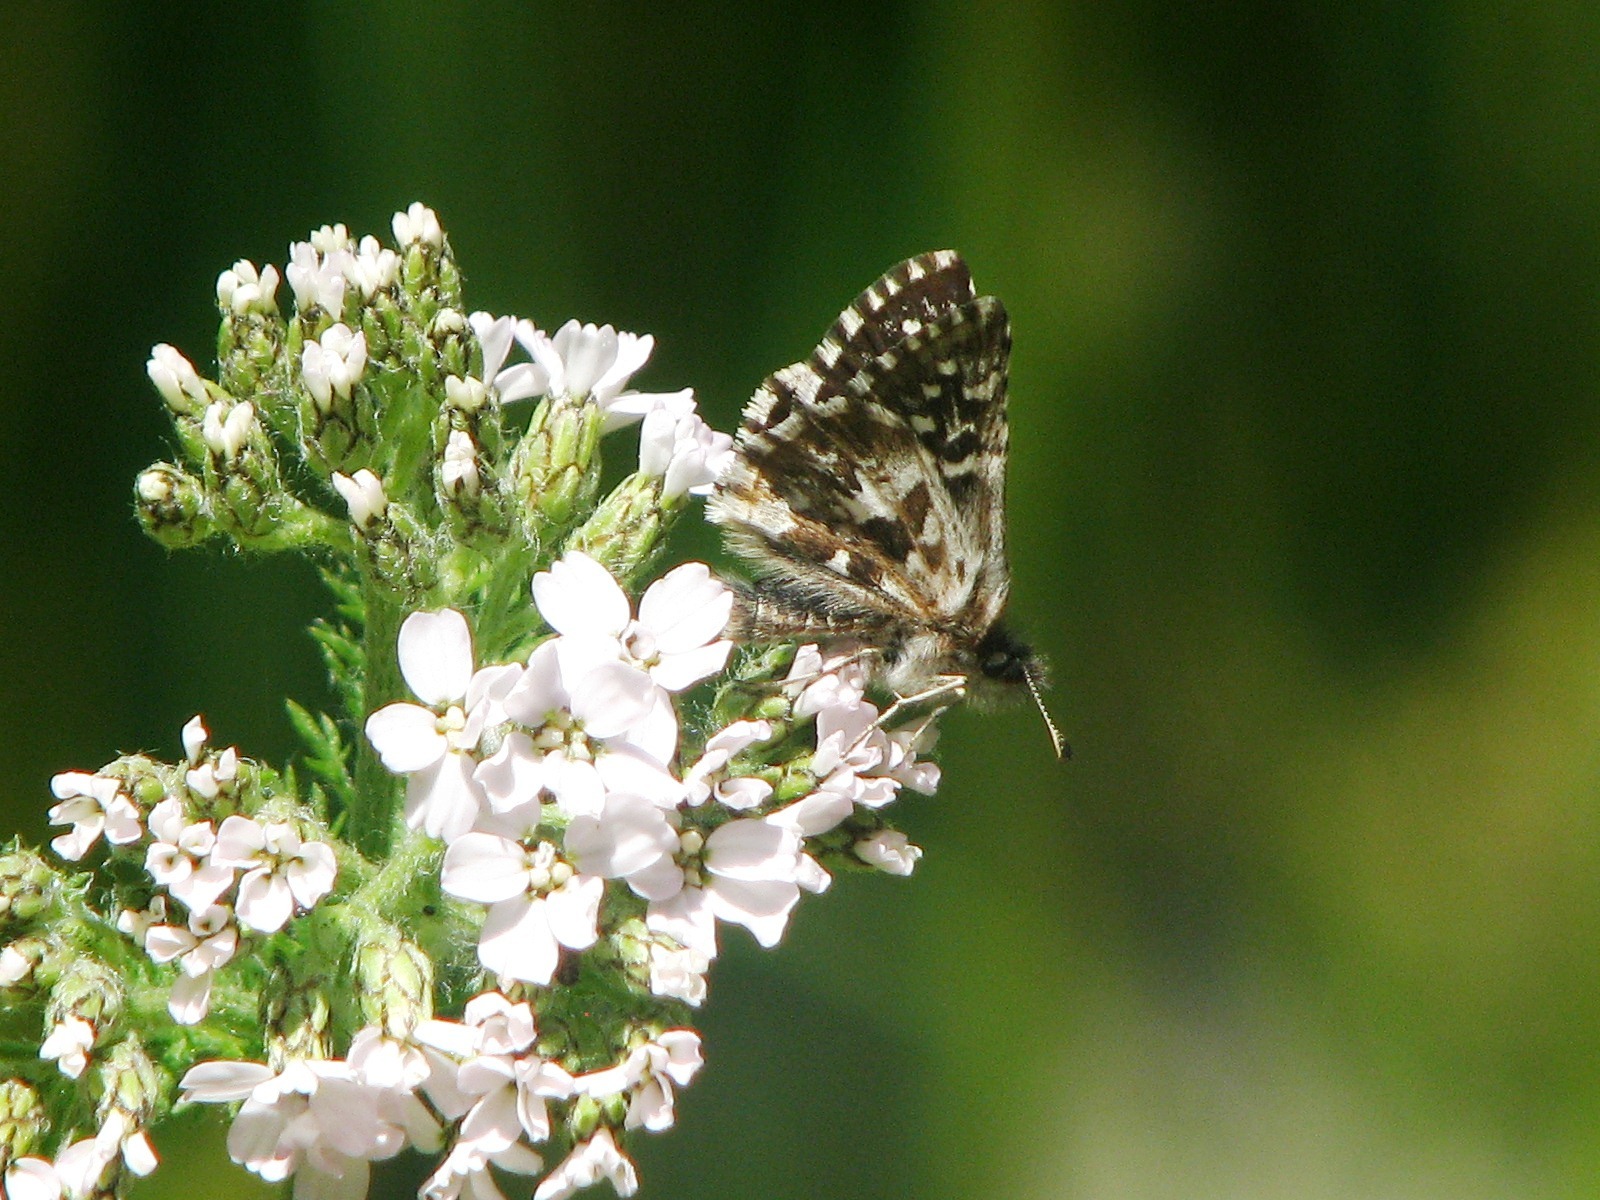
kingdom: Animalia
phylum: Arthropoda
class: Insecta
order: Lepidoptera
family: Hesperiidae
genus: Pyrgus
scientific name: Pyrgus ruralis
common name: Two-banded checkered-skipper
